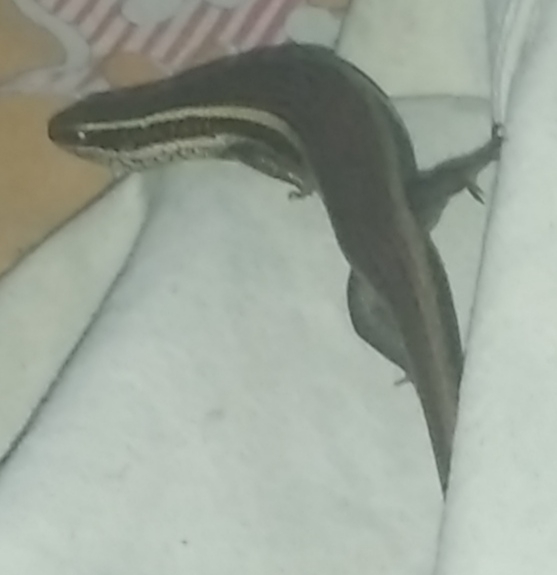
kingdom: Animalia
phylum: Chordata
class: Squamata
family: Scincidae
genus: Eutropis
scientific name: Eutropis carinata
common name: Keeled indian mabuya
